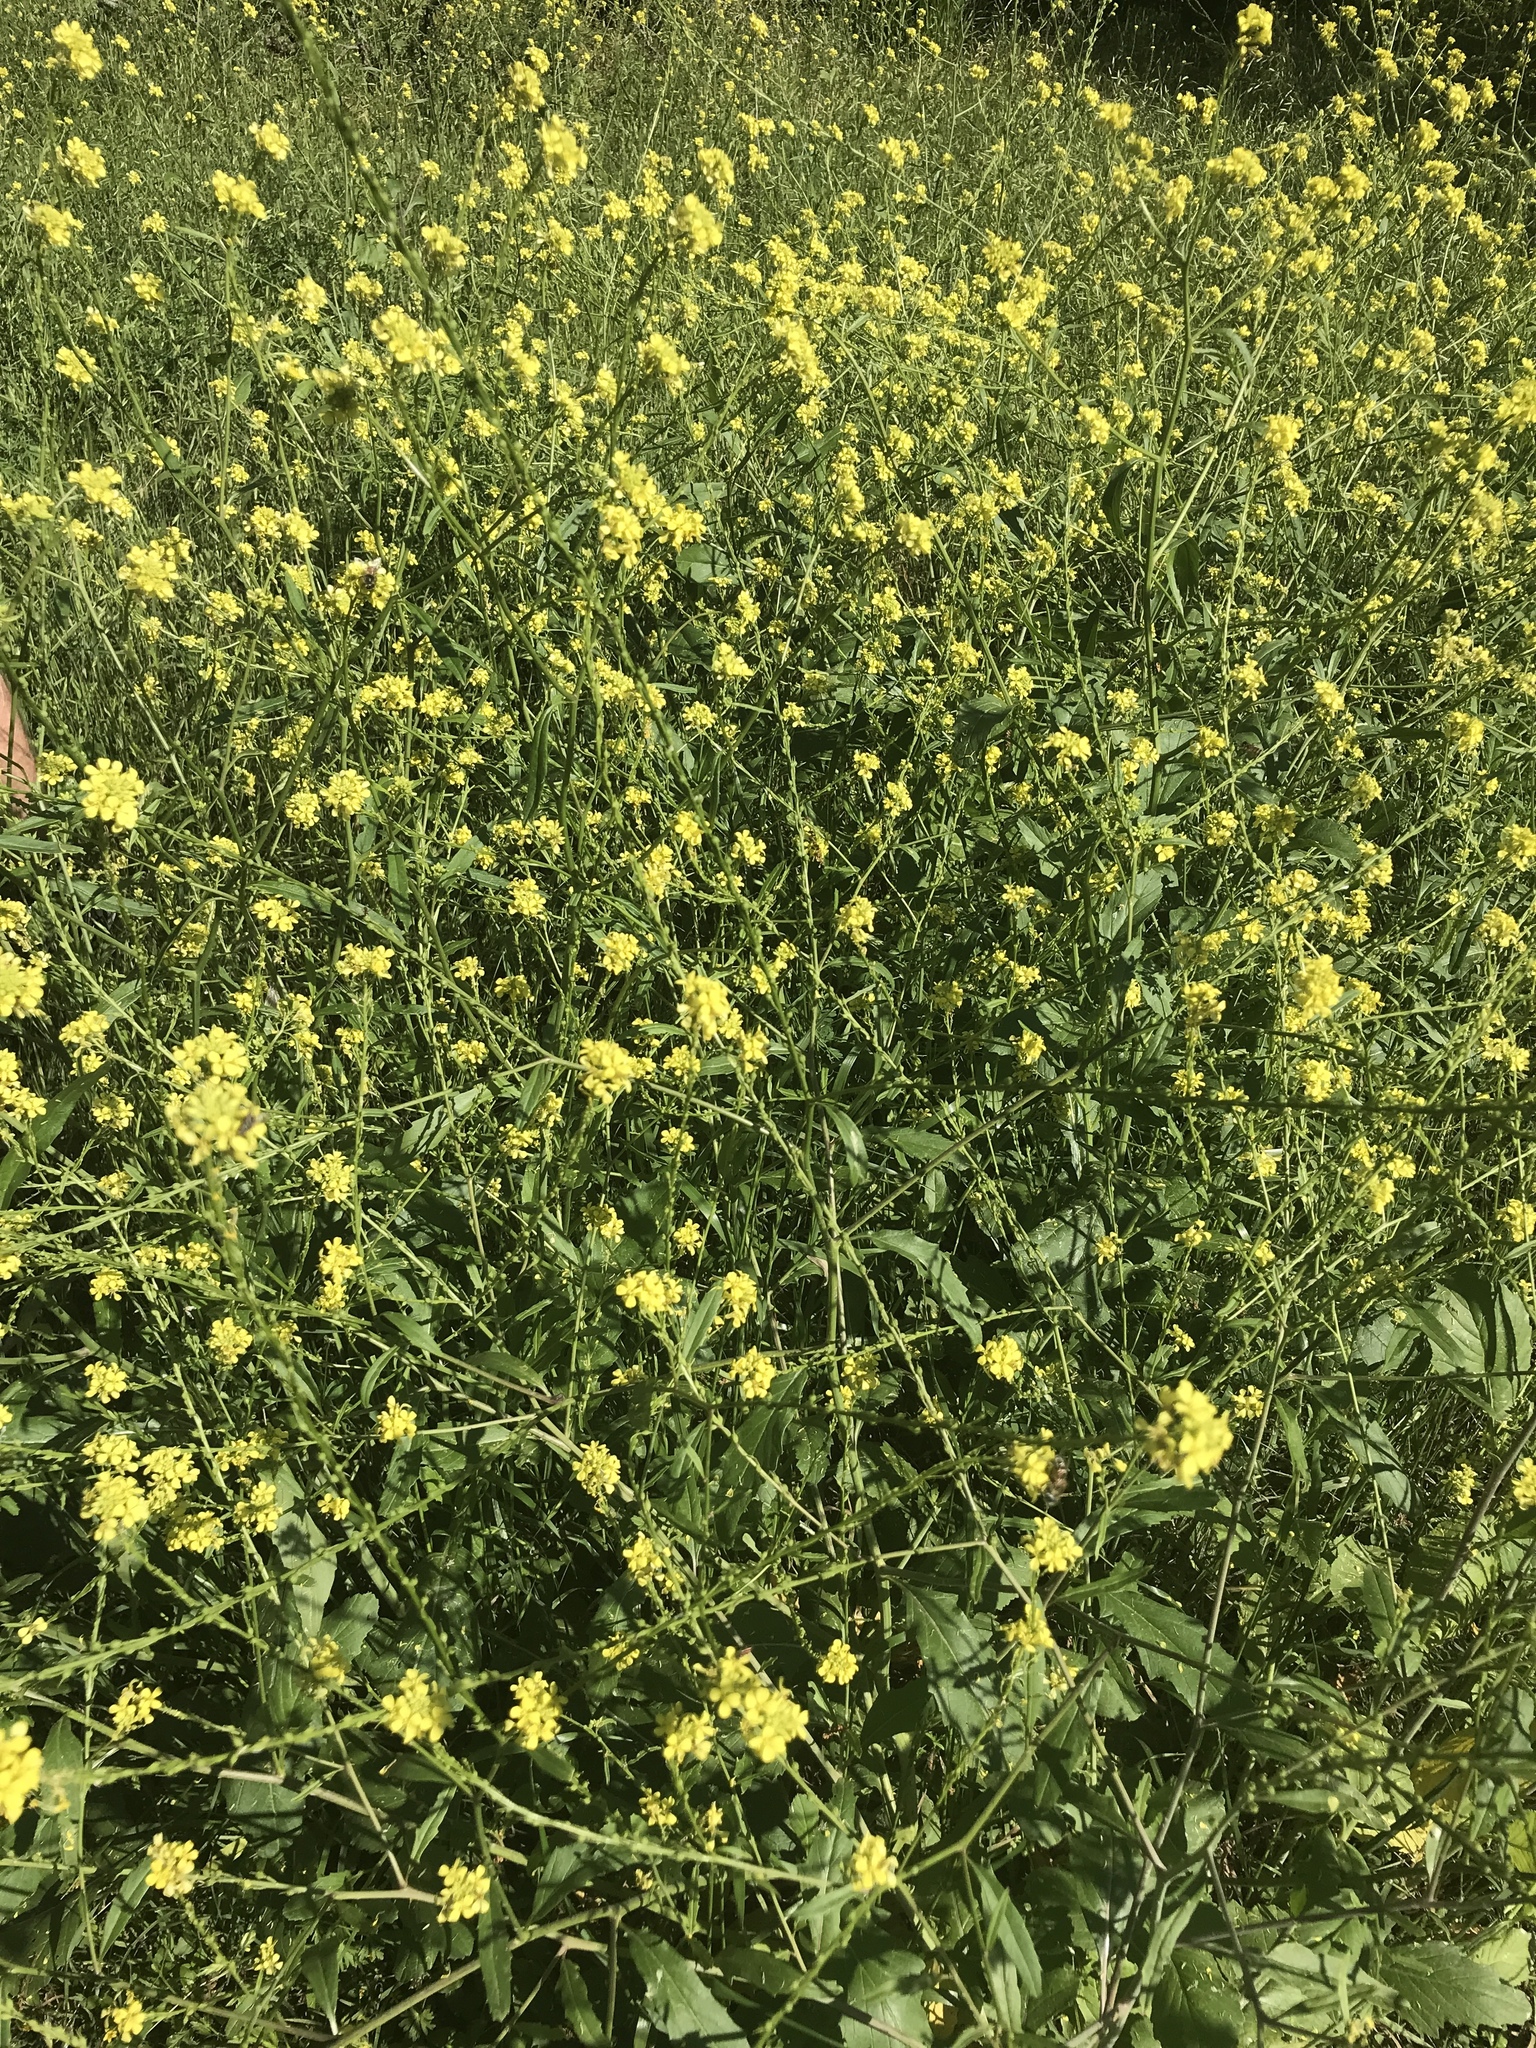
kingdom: Plantae
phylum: Tracheophyta
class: Magnoliopsida
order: Brassicales
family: Brassicaceae
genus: Rapistrum
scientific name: Rapistrum rugosum
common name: Annual bastardcabbage
